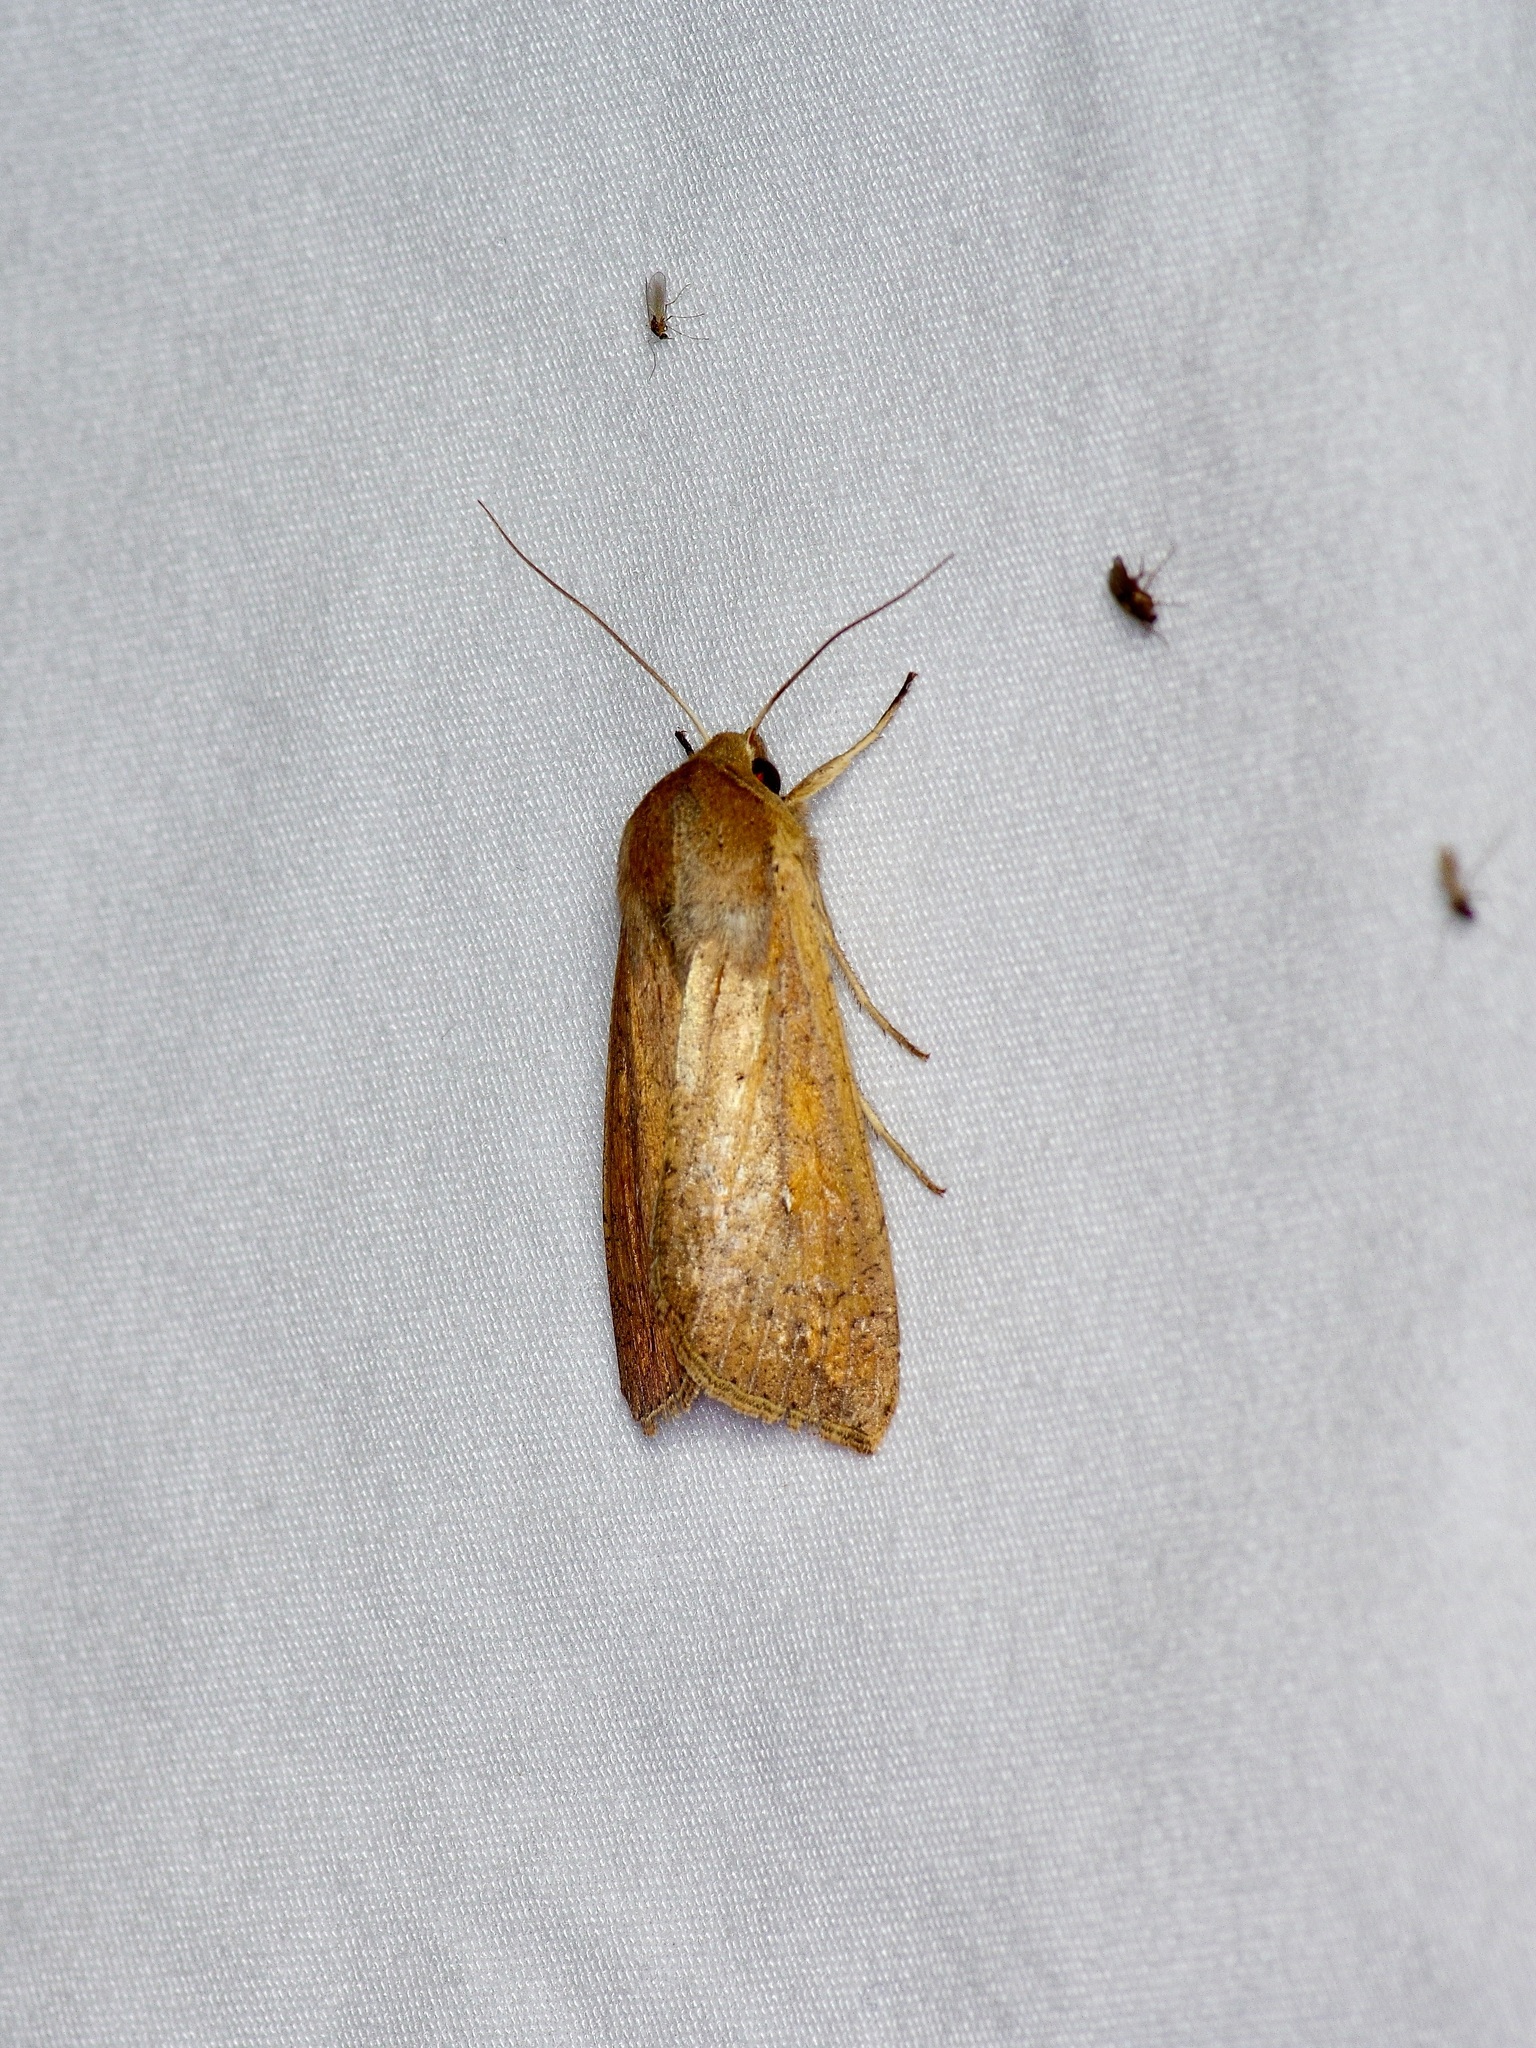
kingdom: Animalia
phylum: Arthropoda
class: Insecta
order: Lepidoptera
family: Noctuidae
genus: Mythimna
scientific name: Mythimna unipuncta
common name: White-speck
